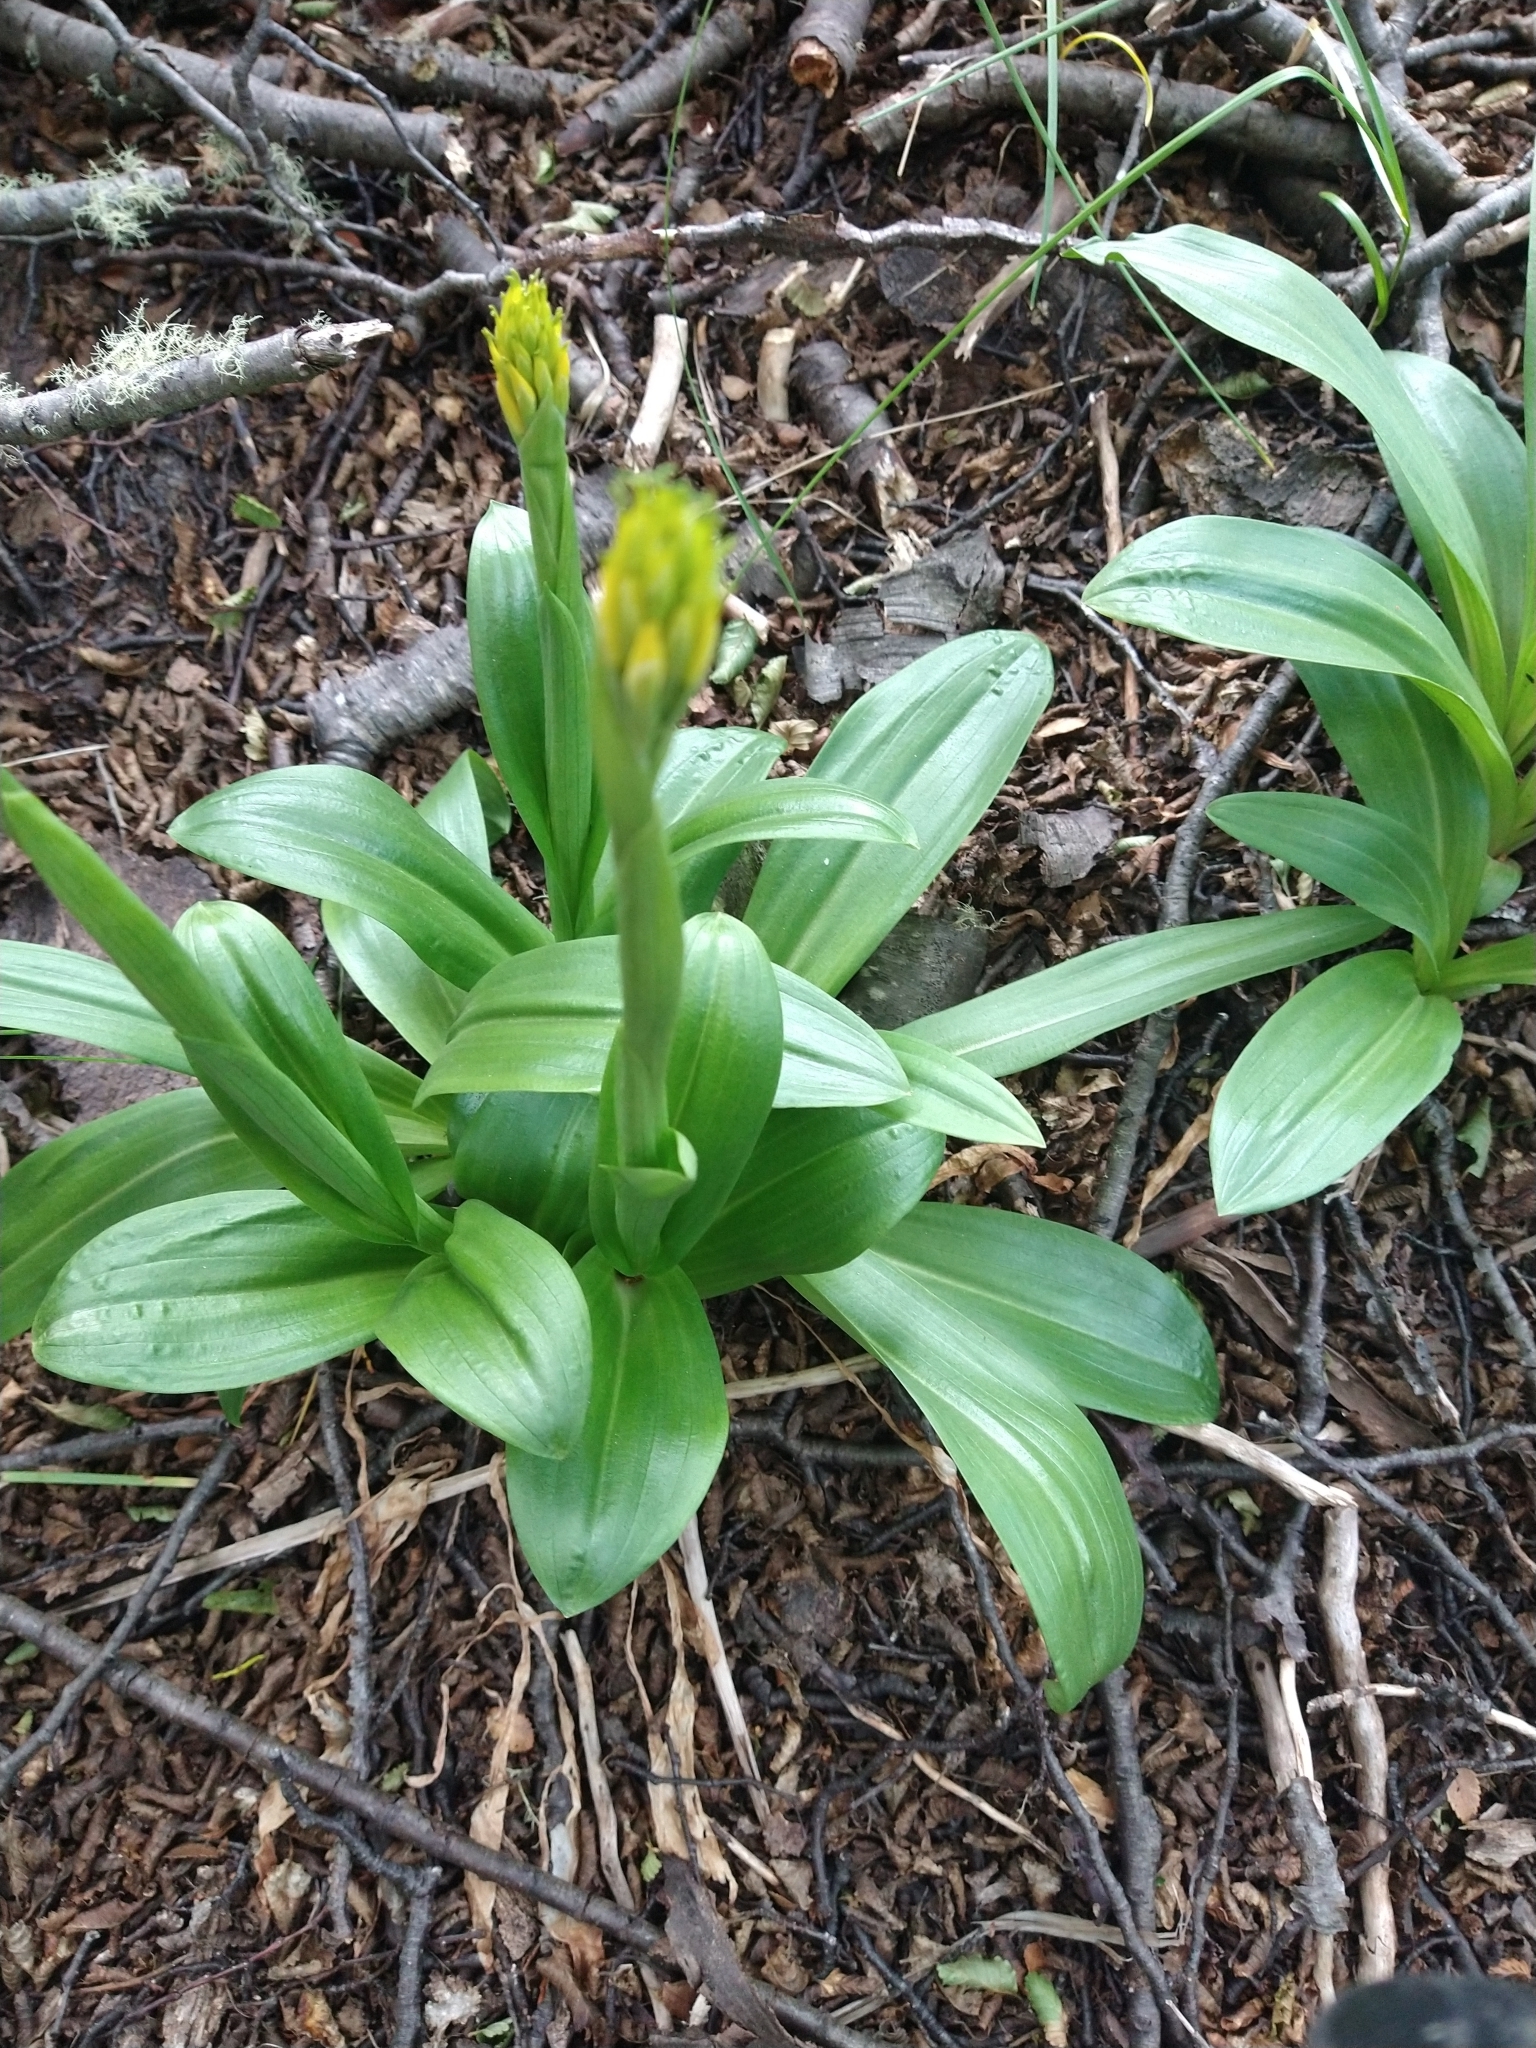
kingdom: Plantae
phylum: Tracheophyta
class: Liliopsida
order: Asparagales
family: Orchidaceae
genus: Gavilea
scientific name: Gavilea lutea
